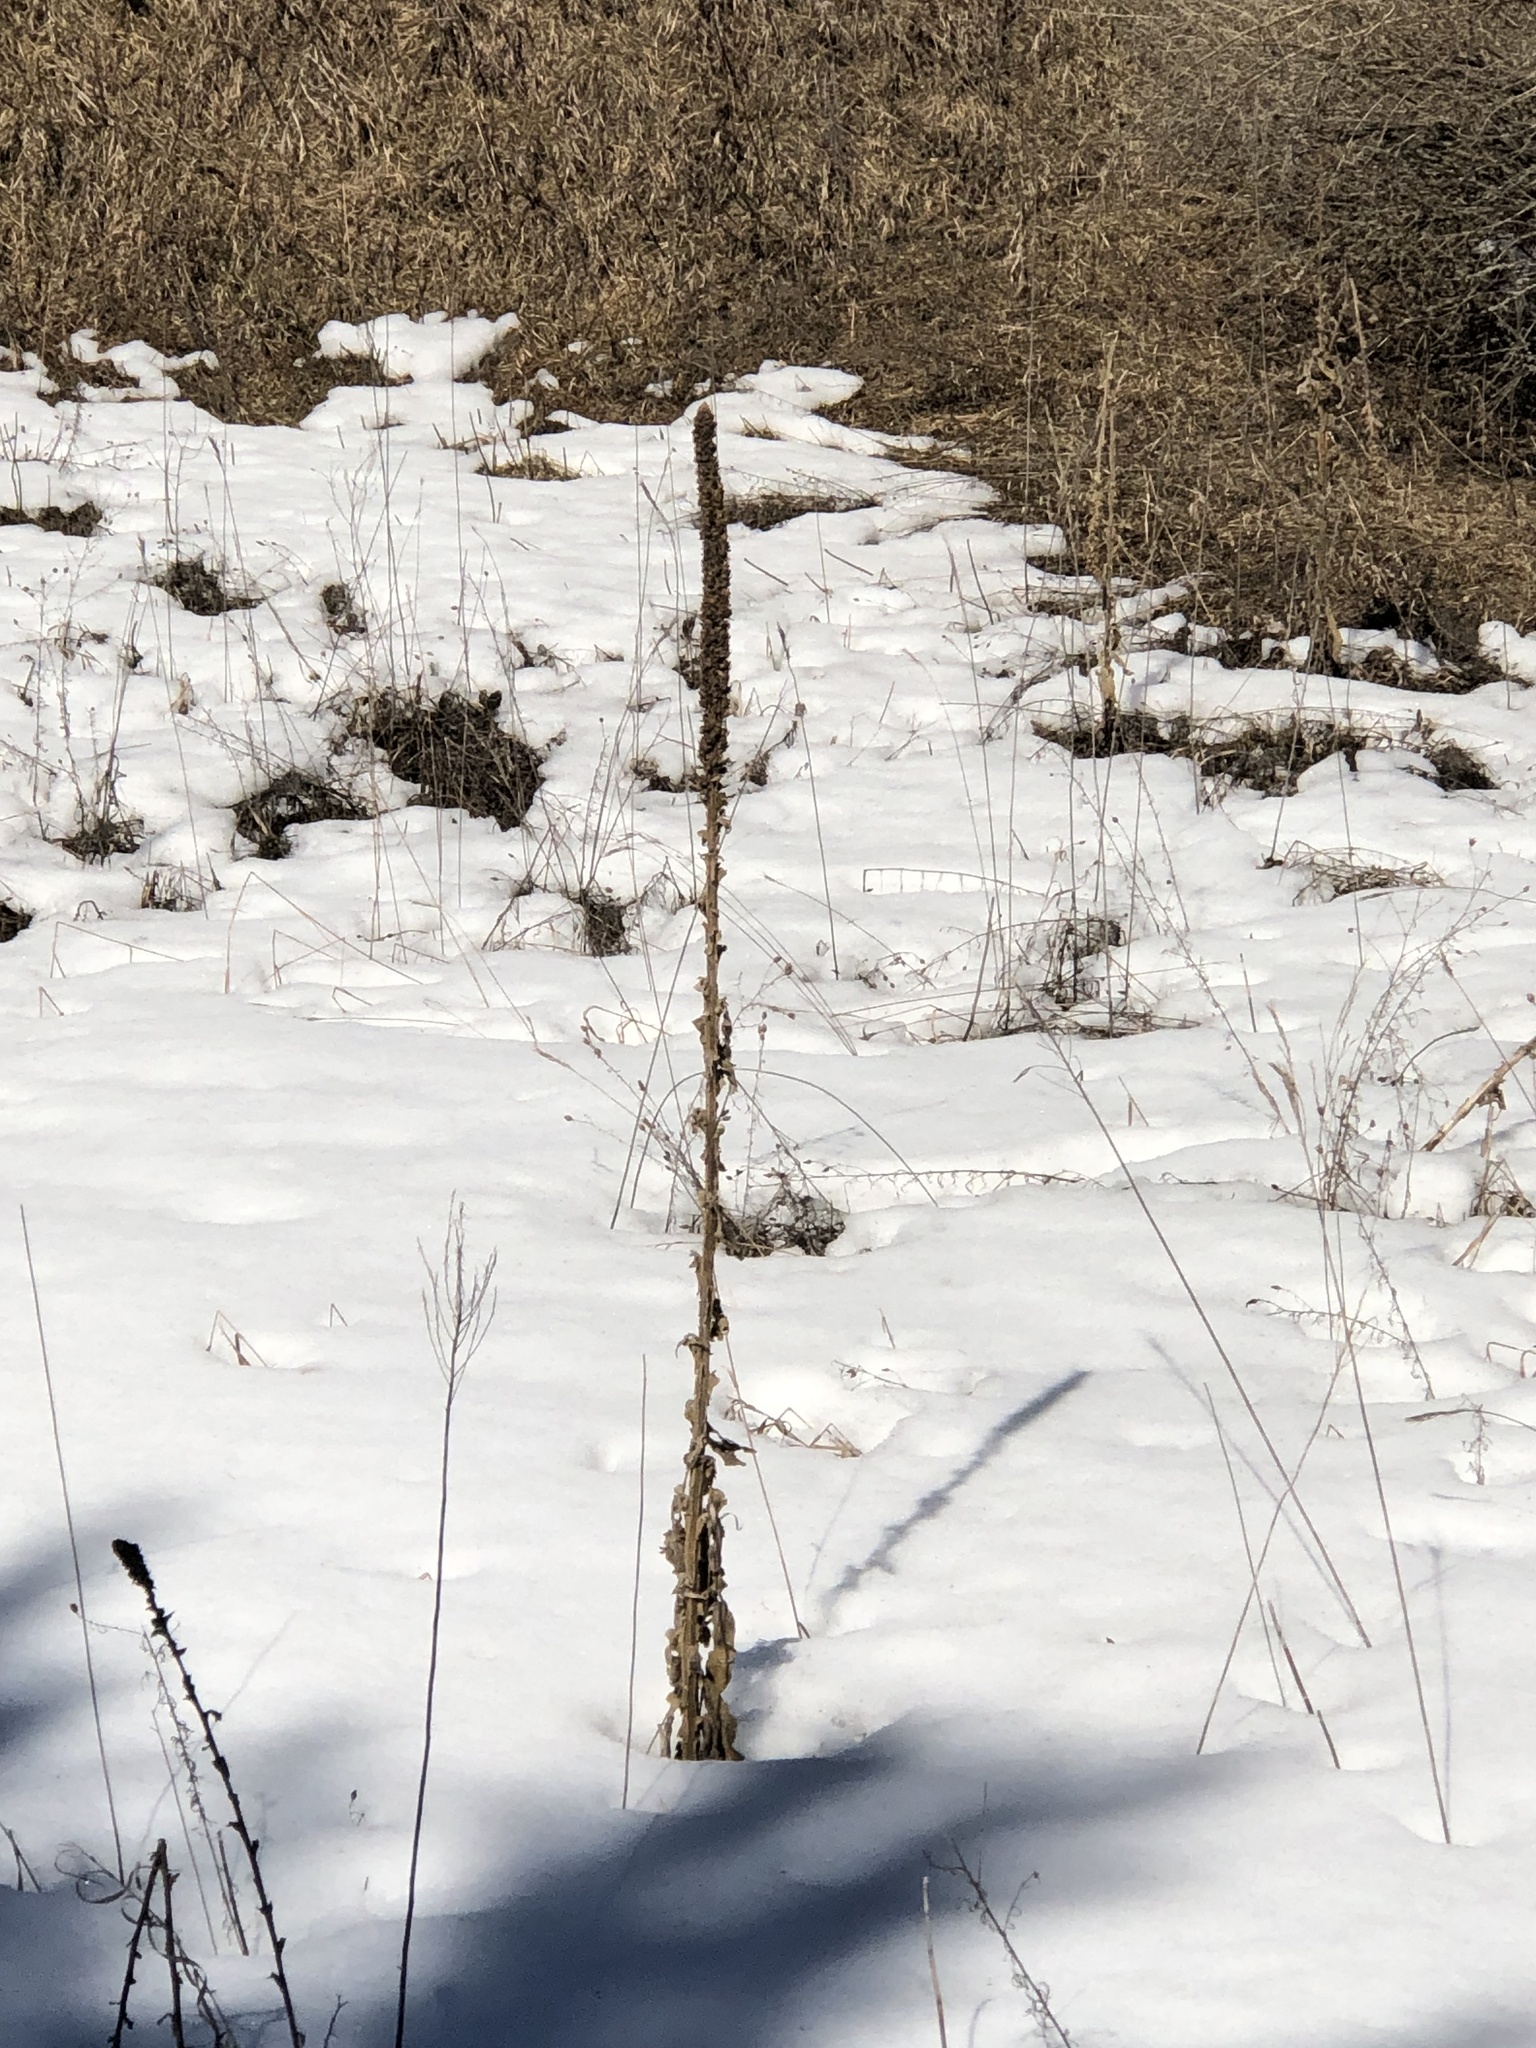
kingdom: Plantae
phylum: Tracheophyta
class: Magnoliopsida
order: Lamiales
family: Scrophulariaceae
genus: Verbascum
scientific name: Verbascum thapsus
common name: Common mullein
